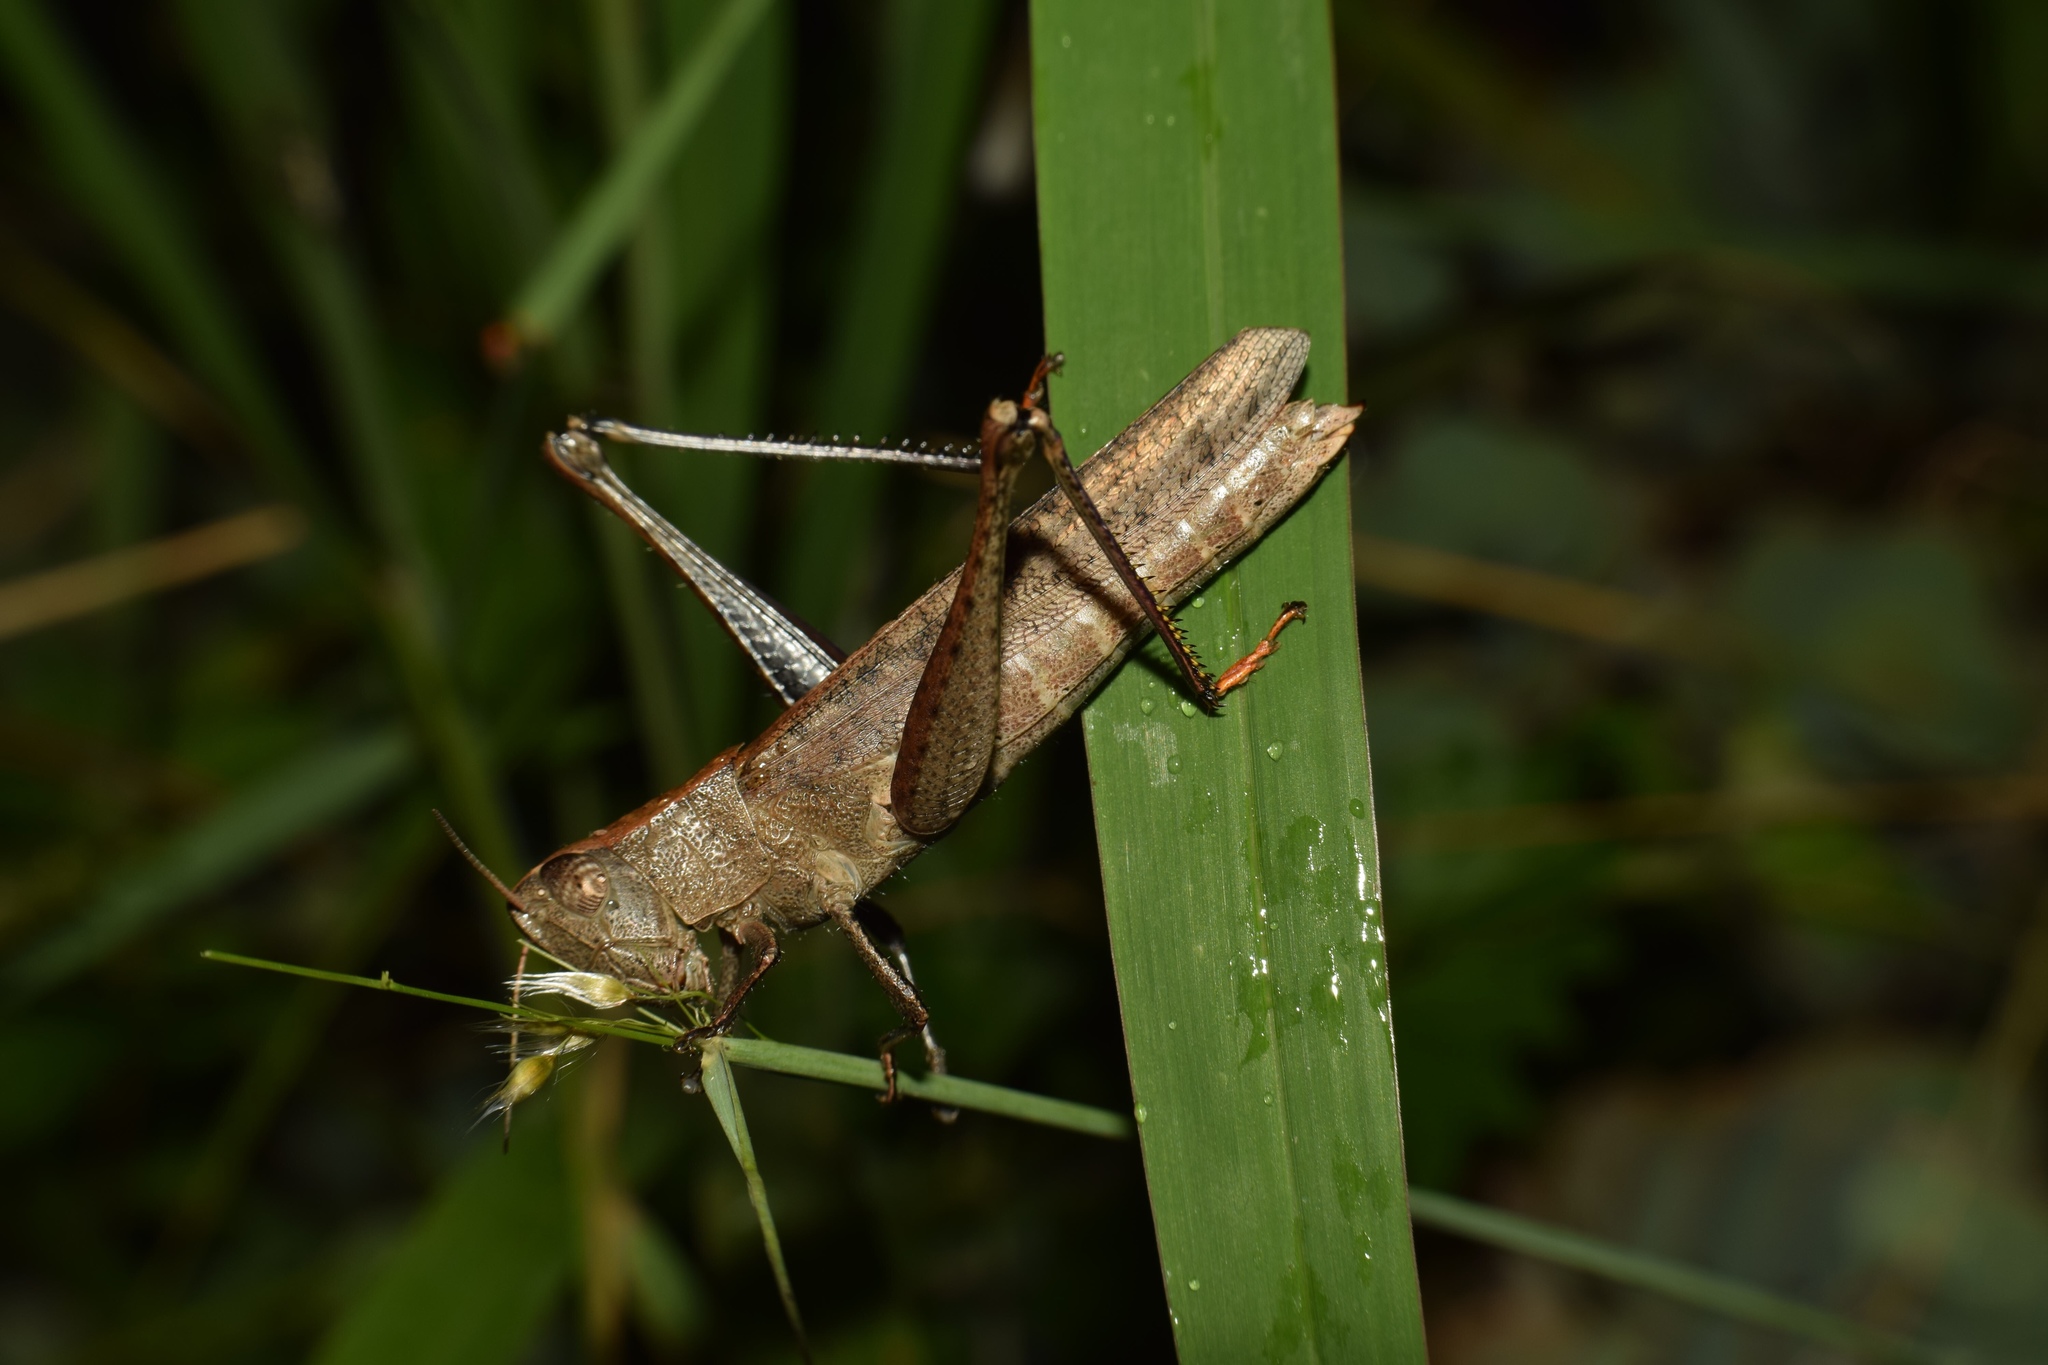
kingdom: Animalia
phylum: Arthropoda
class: Insecta
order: Orthoptera
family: Acrididae
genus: Oraistes
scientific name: Oraistes luridus
